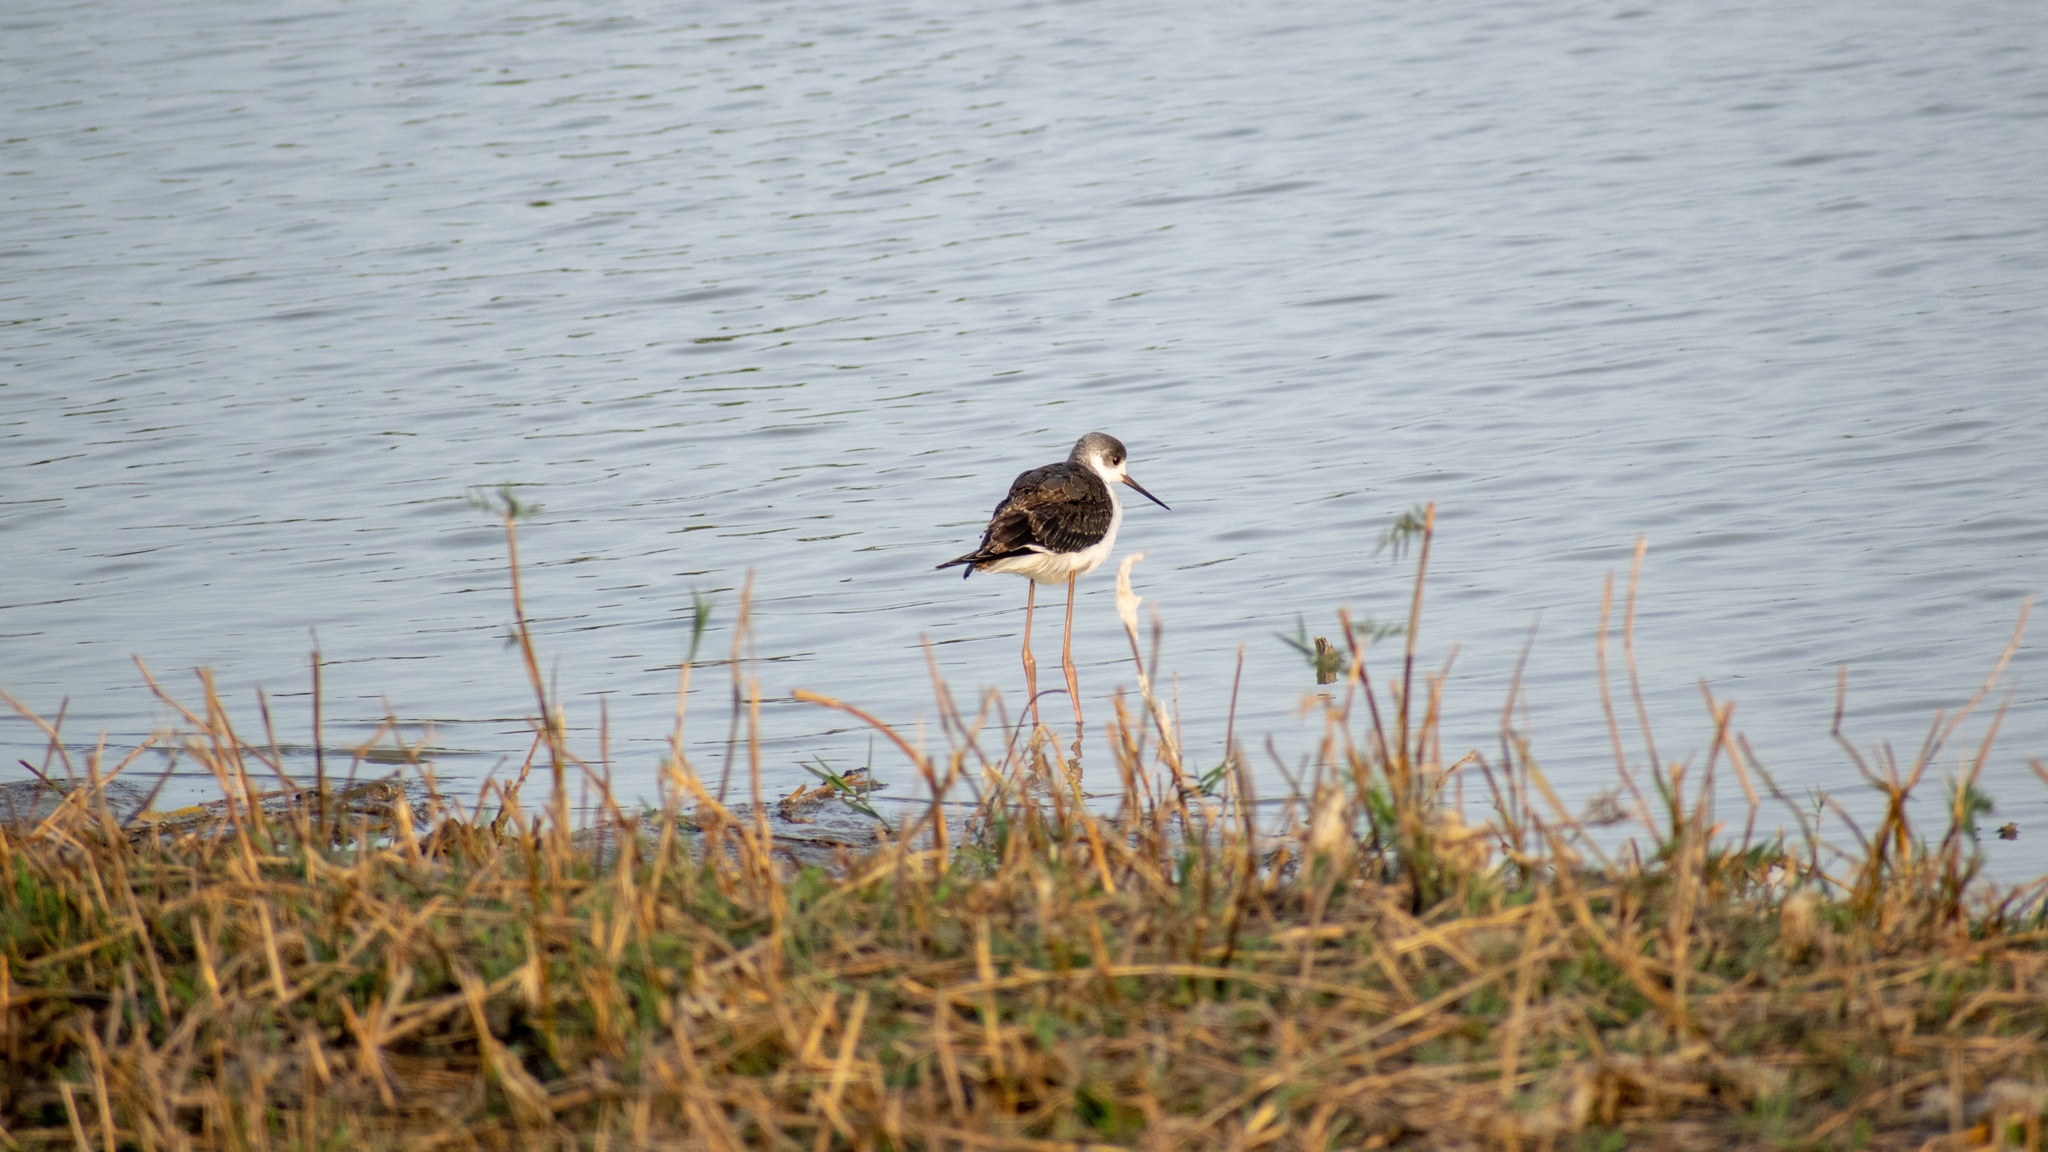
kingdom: Animalia
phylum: Chordata
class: Aves
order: Charadriiformes
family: Recurvirostridae
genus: Himantopus
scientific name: Himantopus himantopus
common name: Black-winged stilt
